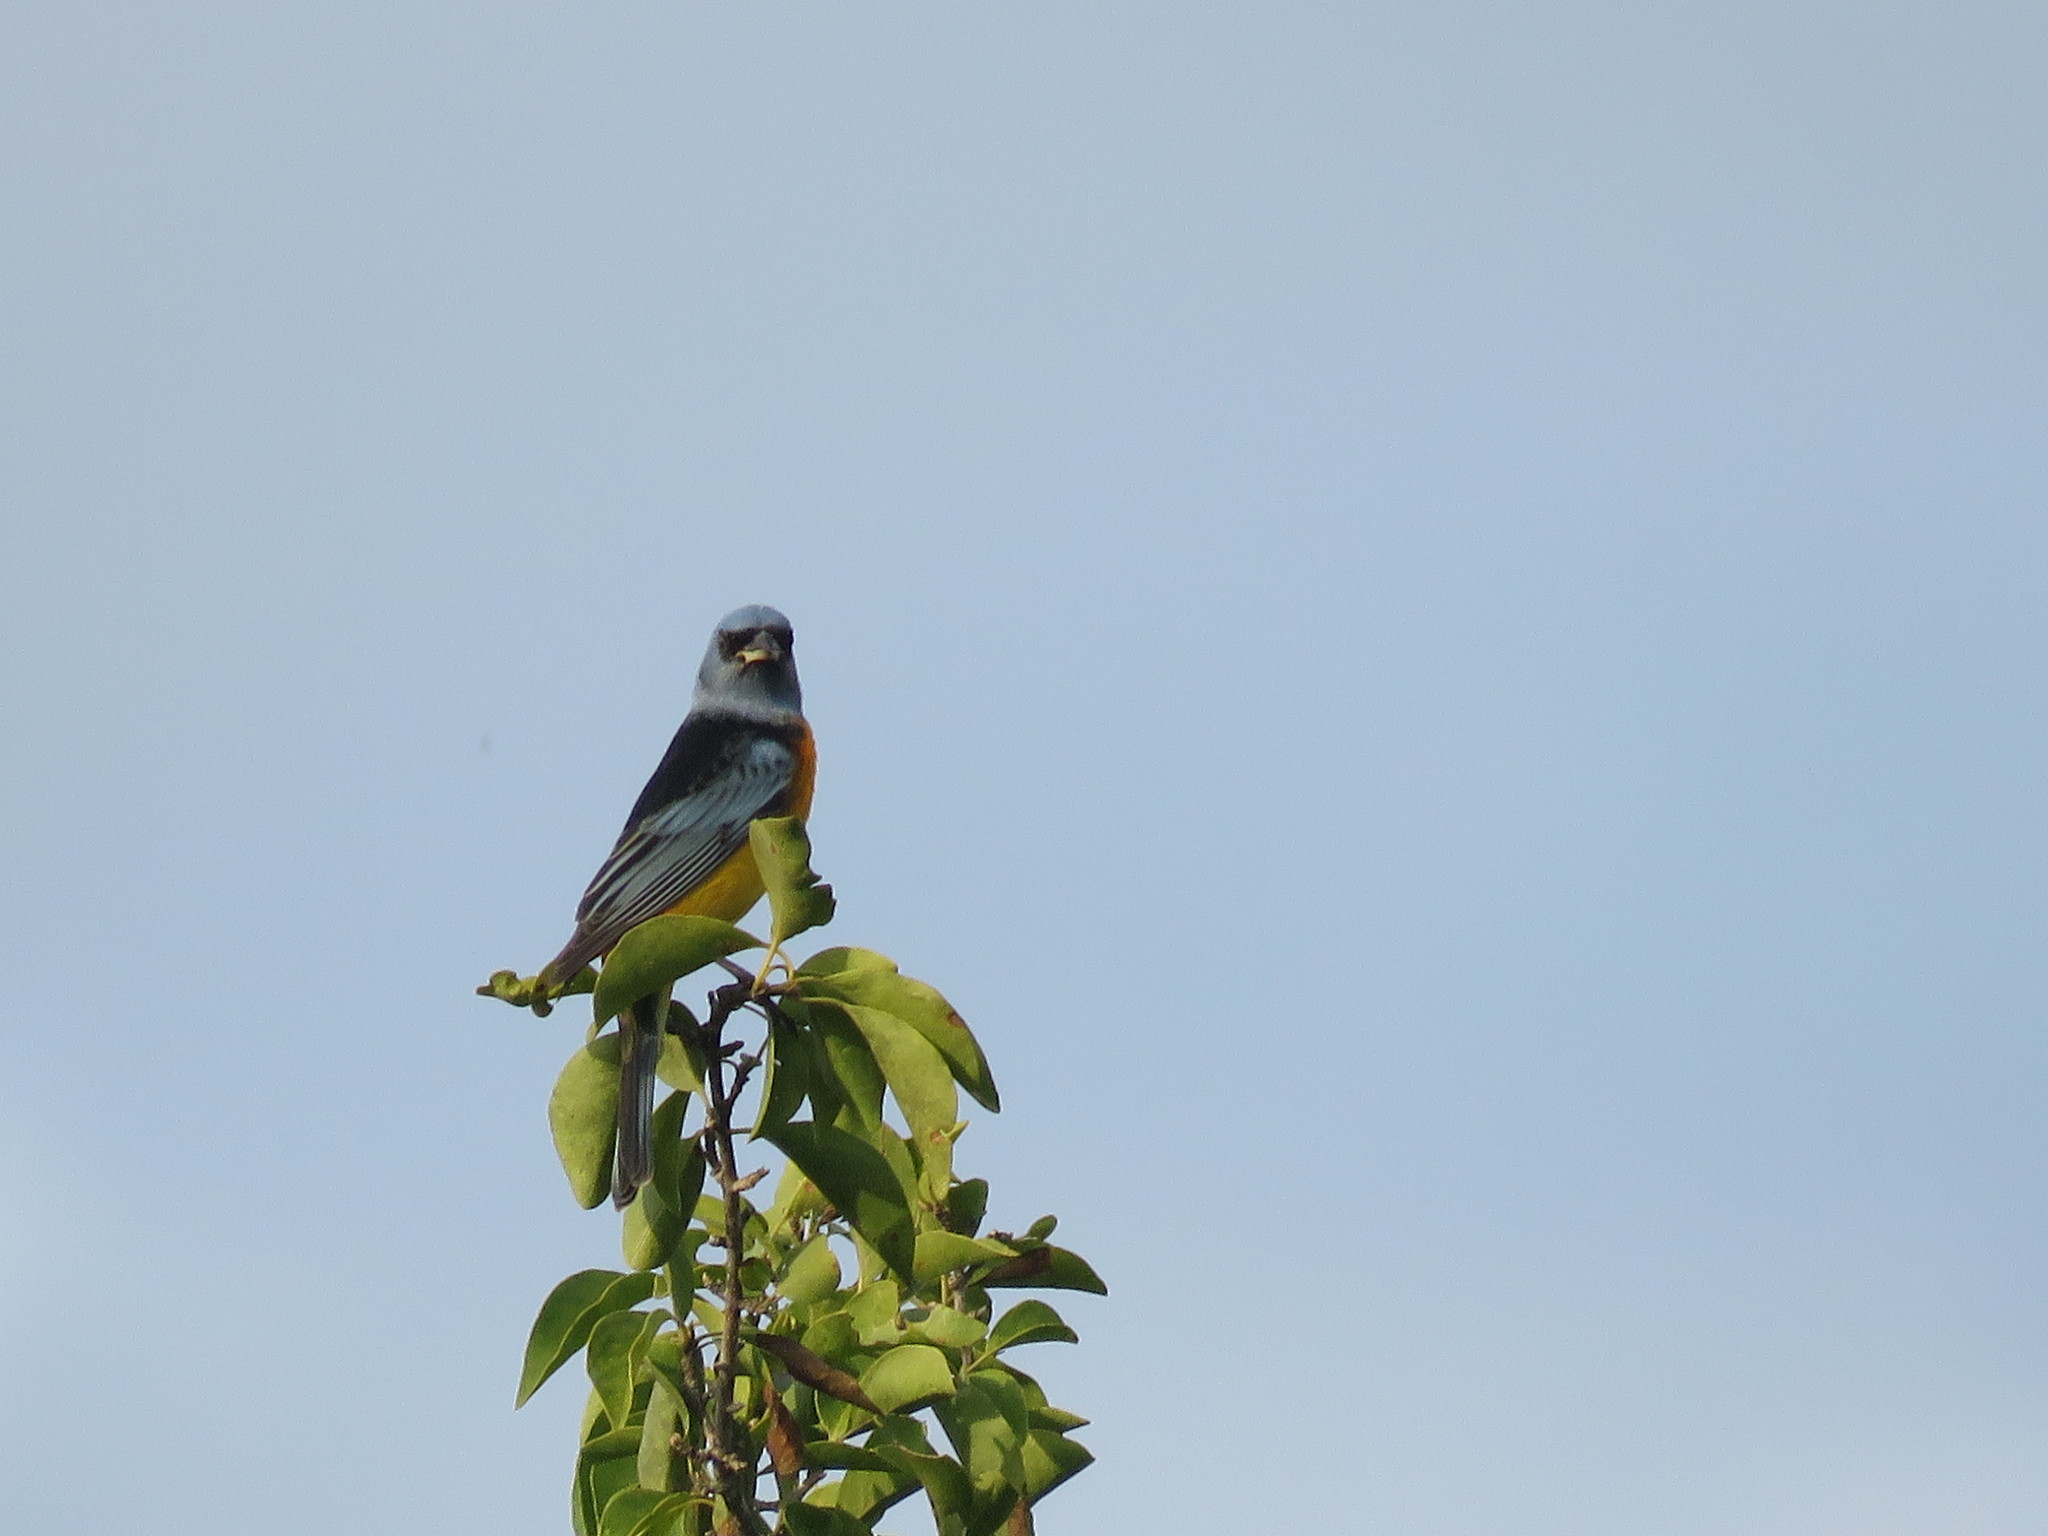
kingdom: Animalia
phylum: Chordata
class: Aves
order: Passeriformes
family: Thraupidae
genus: Rauenia
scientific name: Rauenia bonariensis
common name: Blue-and-yellow tanager
